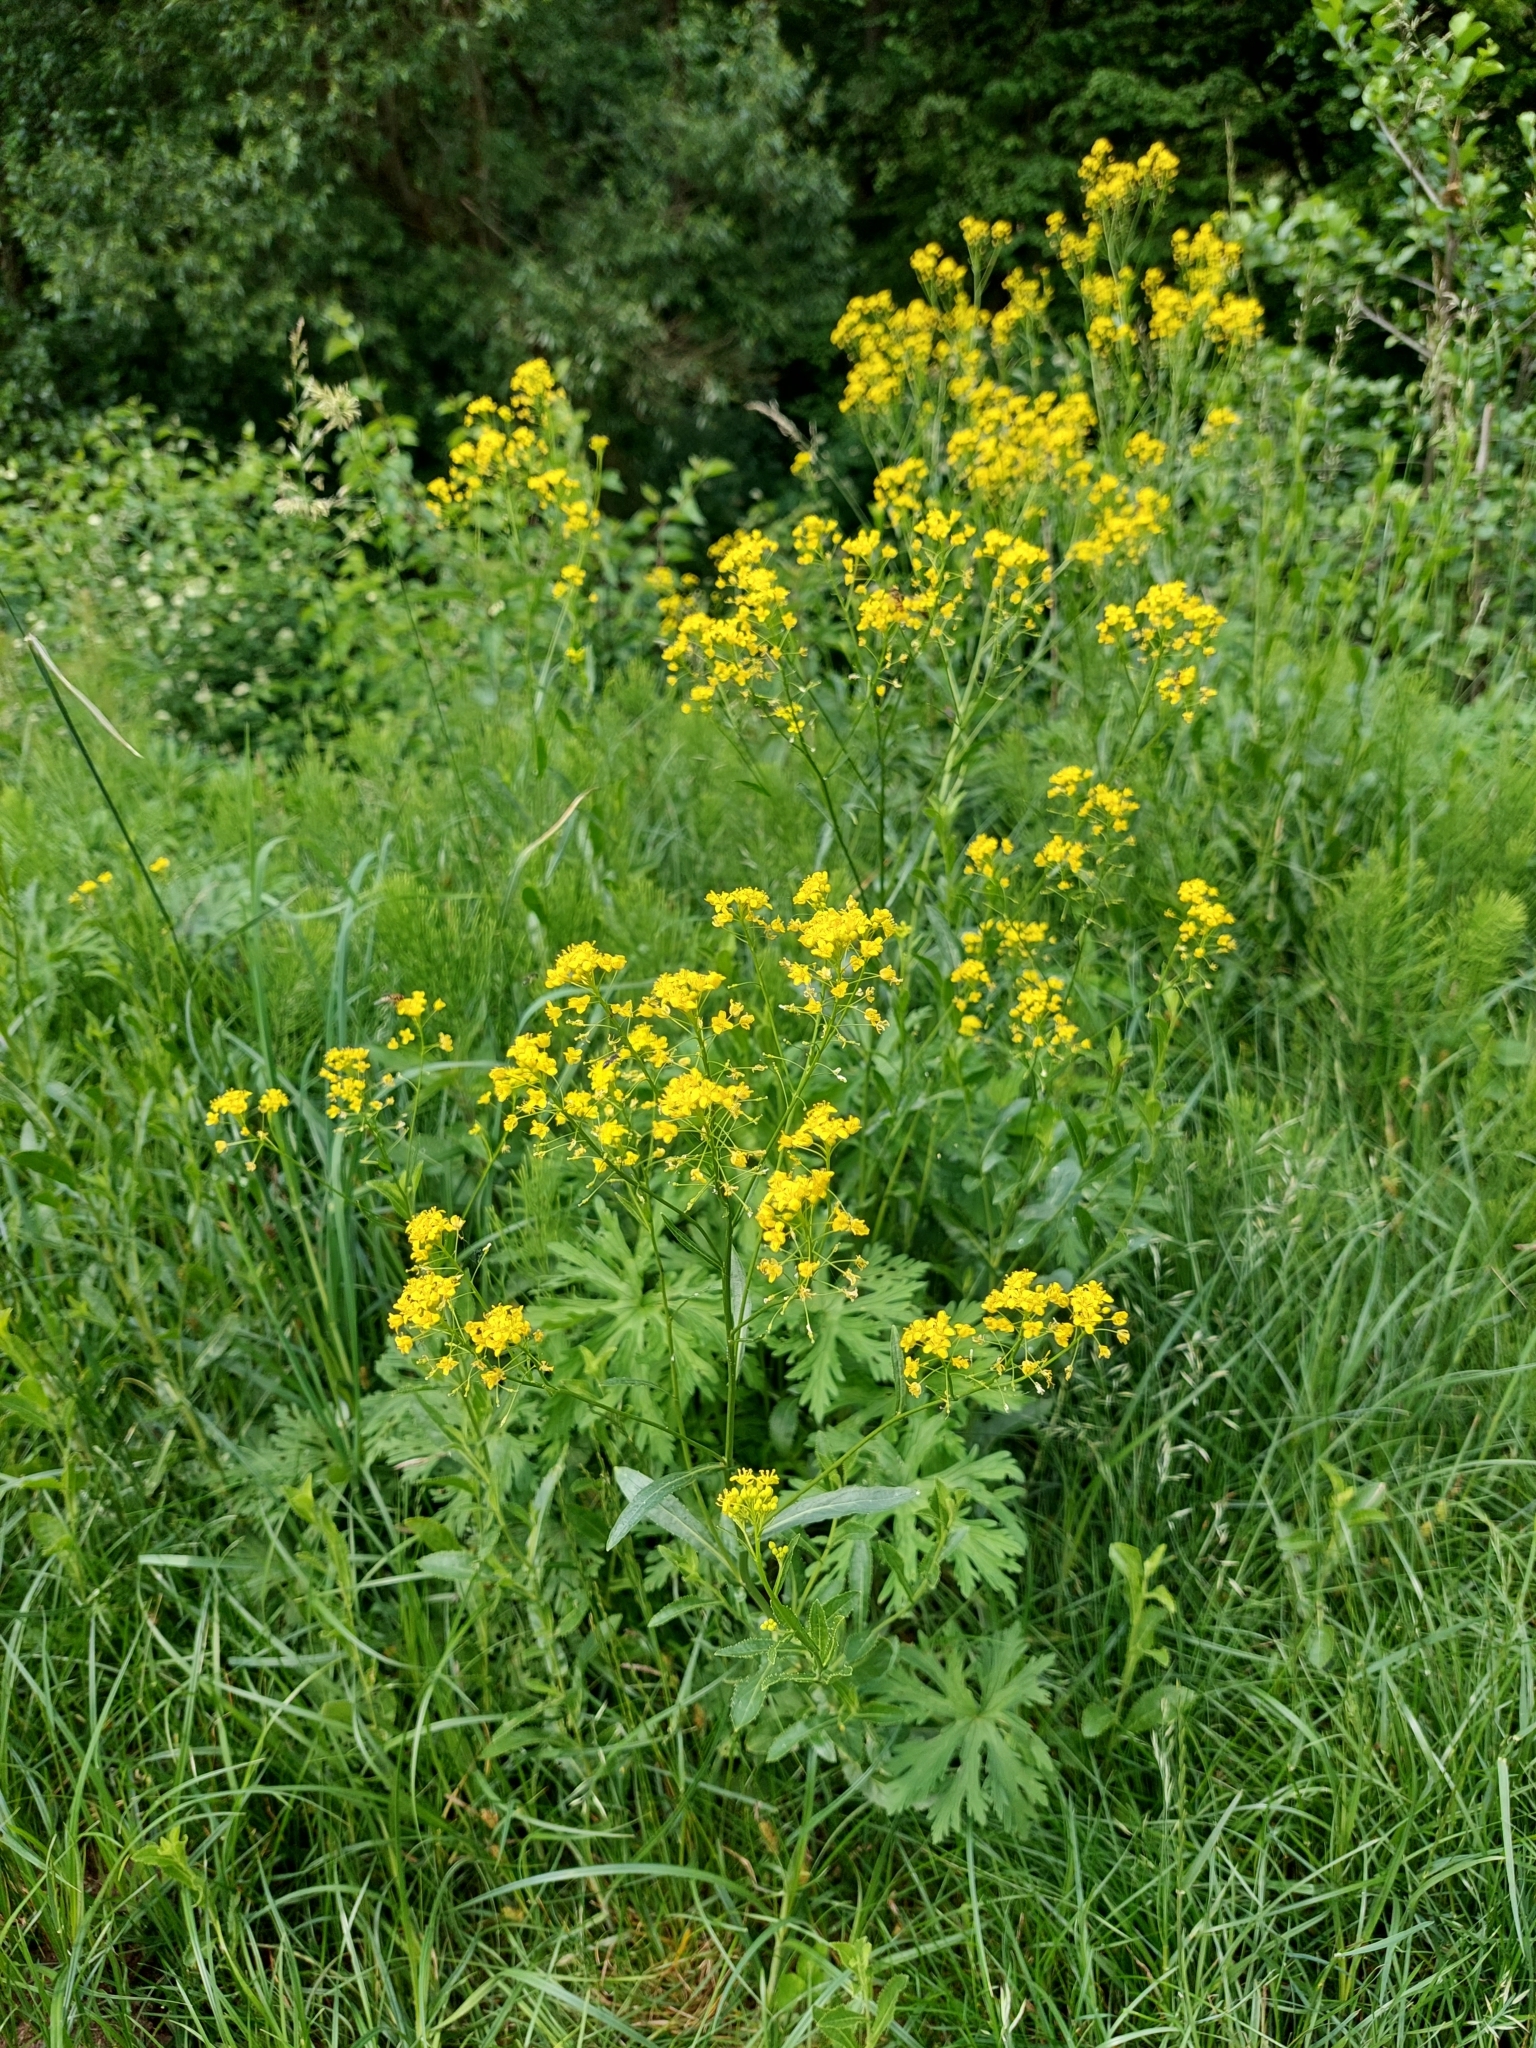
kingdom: Plantae
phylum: Tracheophyta
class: Magnoliopsida
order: Brassicales
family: Brassicaceae
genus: Rorippa
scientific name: Rorippa austriaca
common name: Austrian yellow-cress
